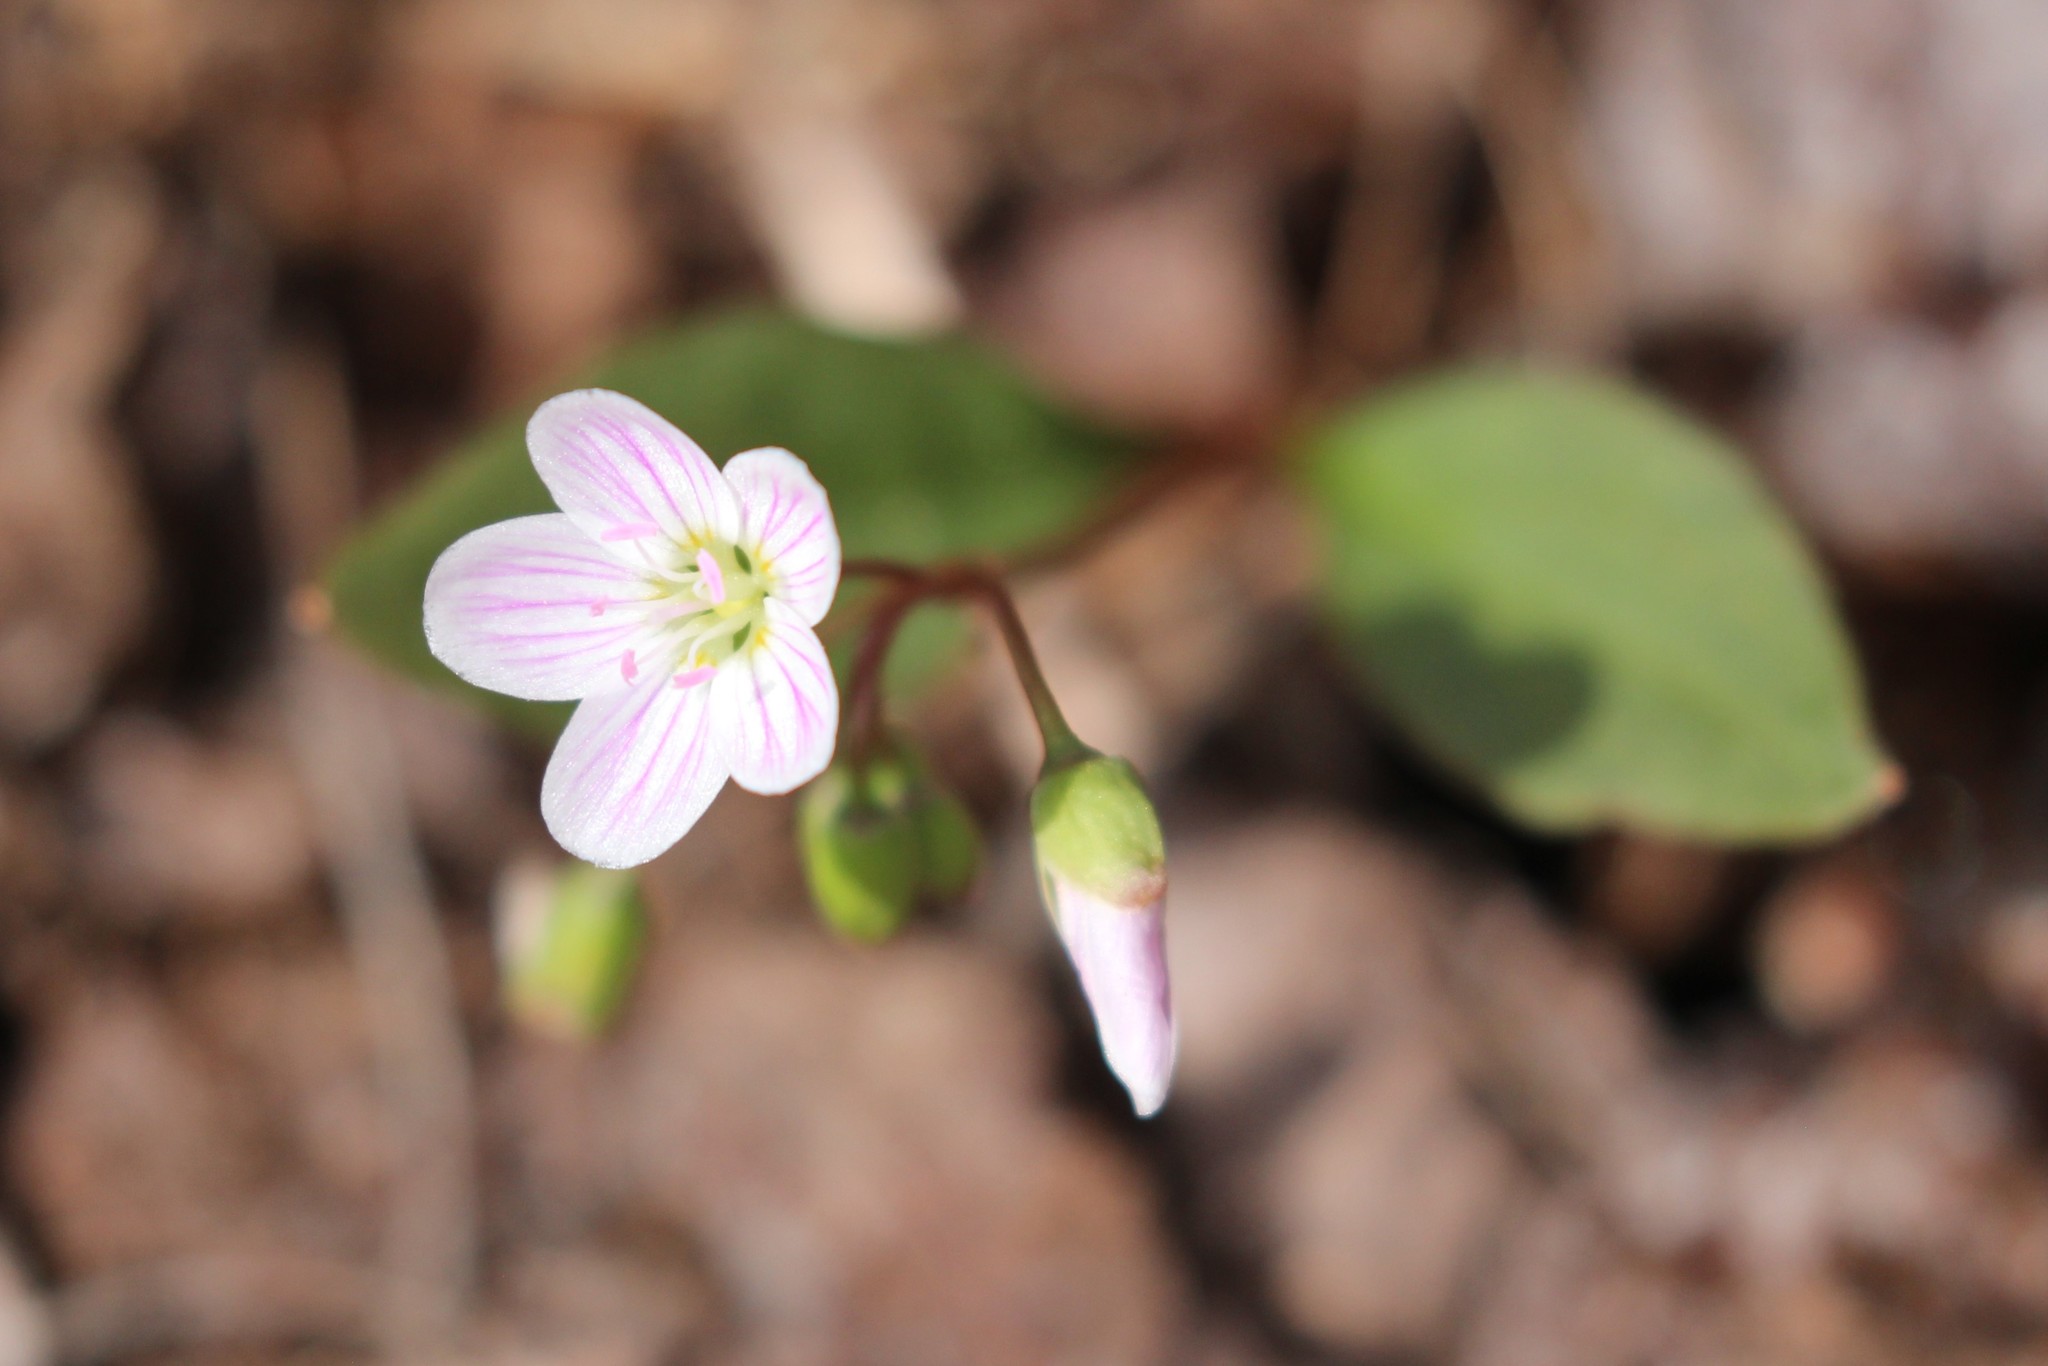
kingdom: Plantae
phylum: Tracheophyta
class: Magnoliopsida
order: Caryophyllales
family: Montiaceae
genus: Claytonia
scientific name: Claytonia caroliniana
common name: Carolina spring beauty
